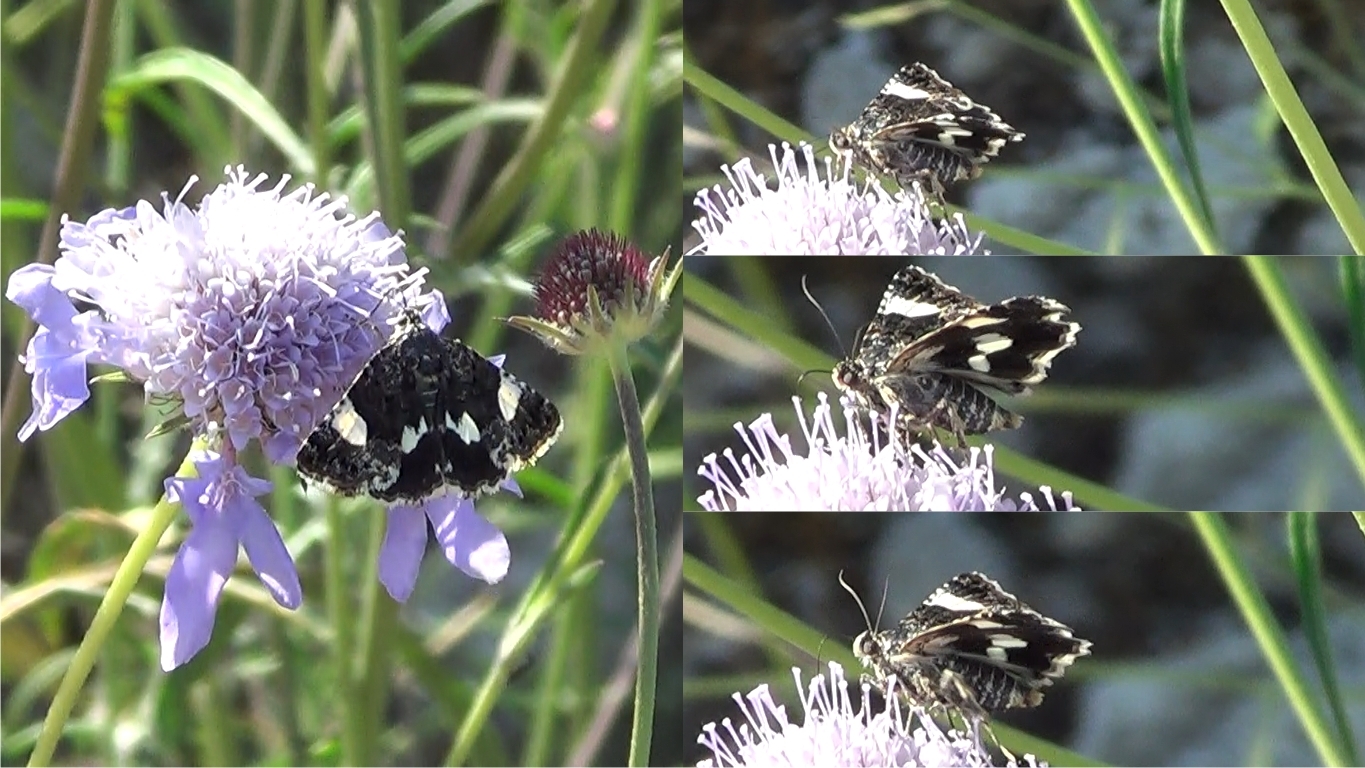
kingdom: Animalia
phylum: Arthropoda
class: Insecta
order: Lepidoptera
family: Erebidae
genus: Tyta
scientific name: Tyta luctuosa
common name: Four-spotted
